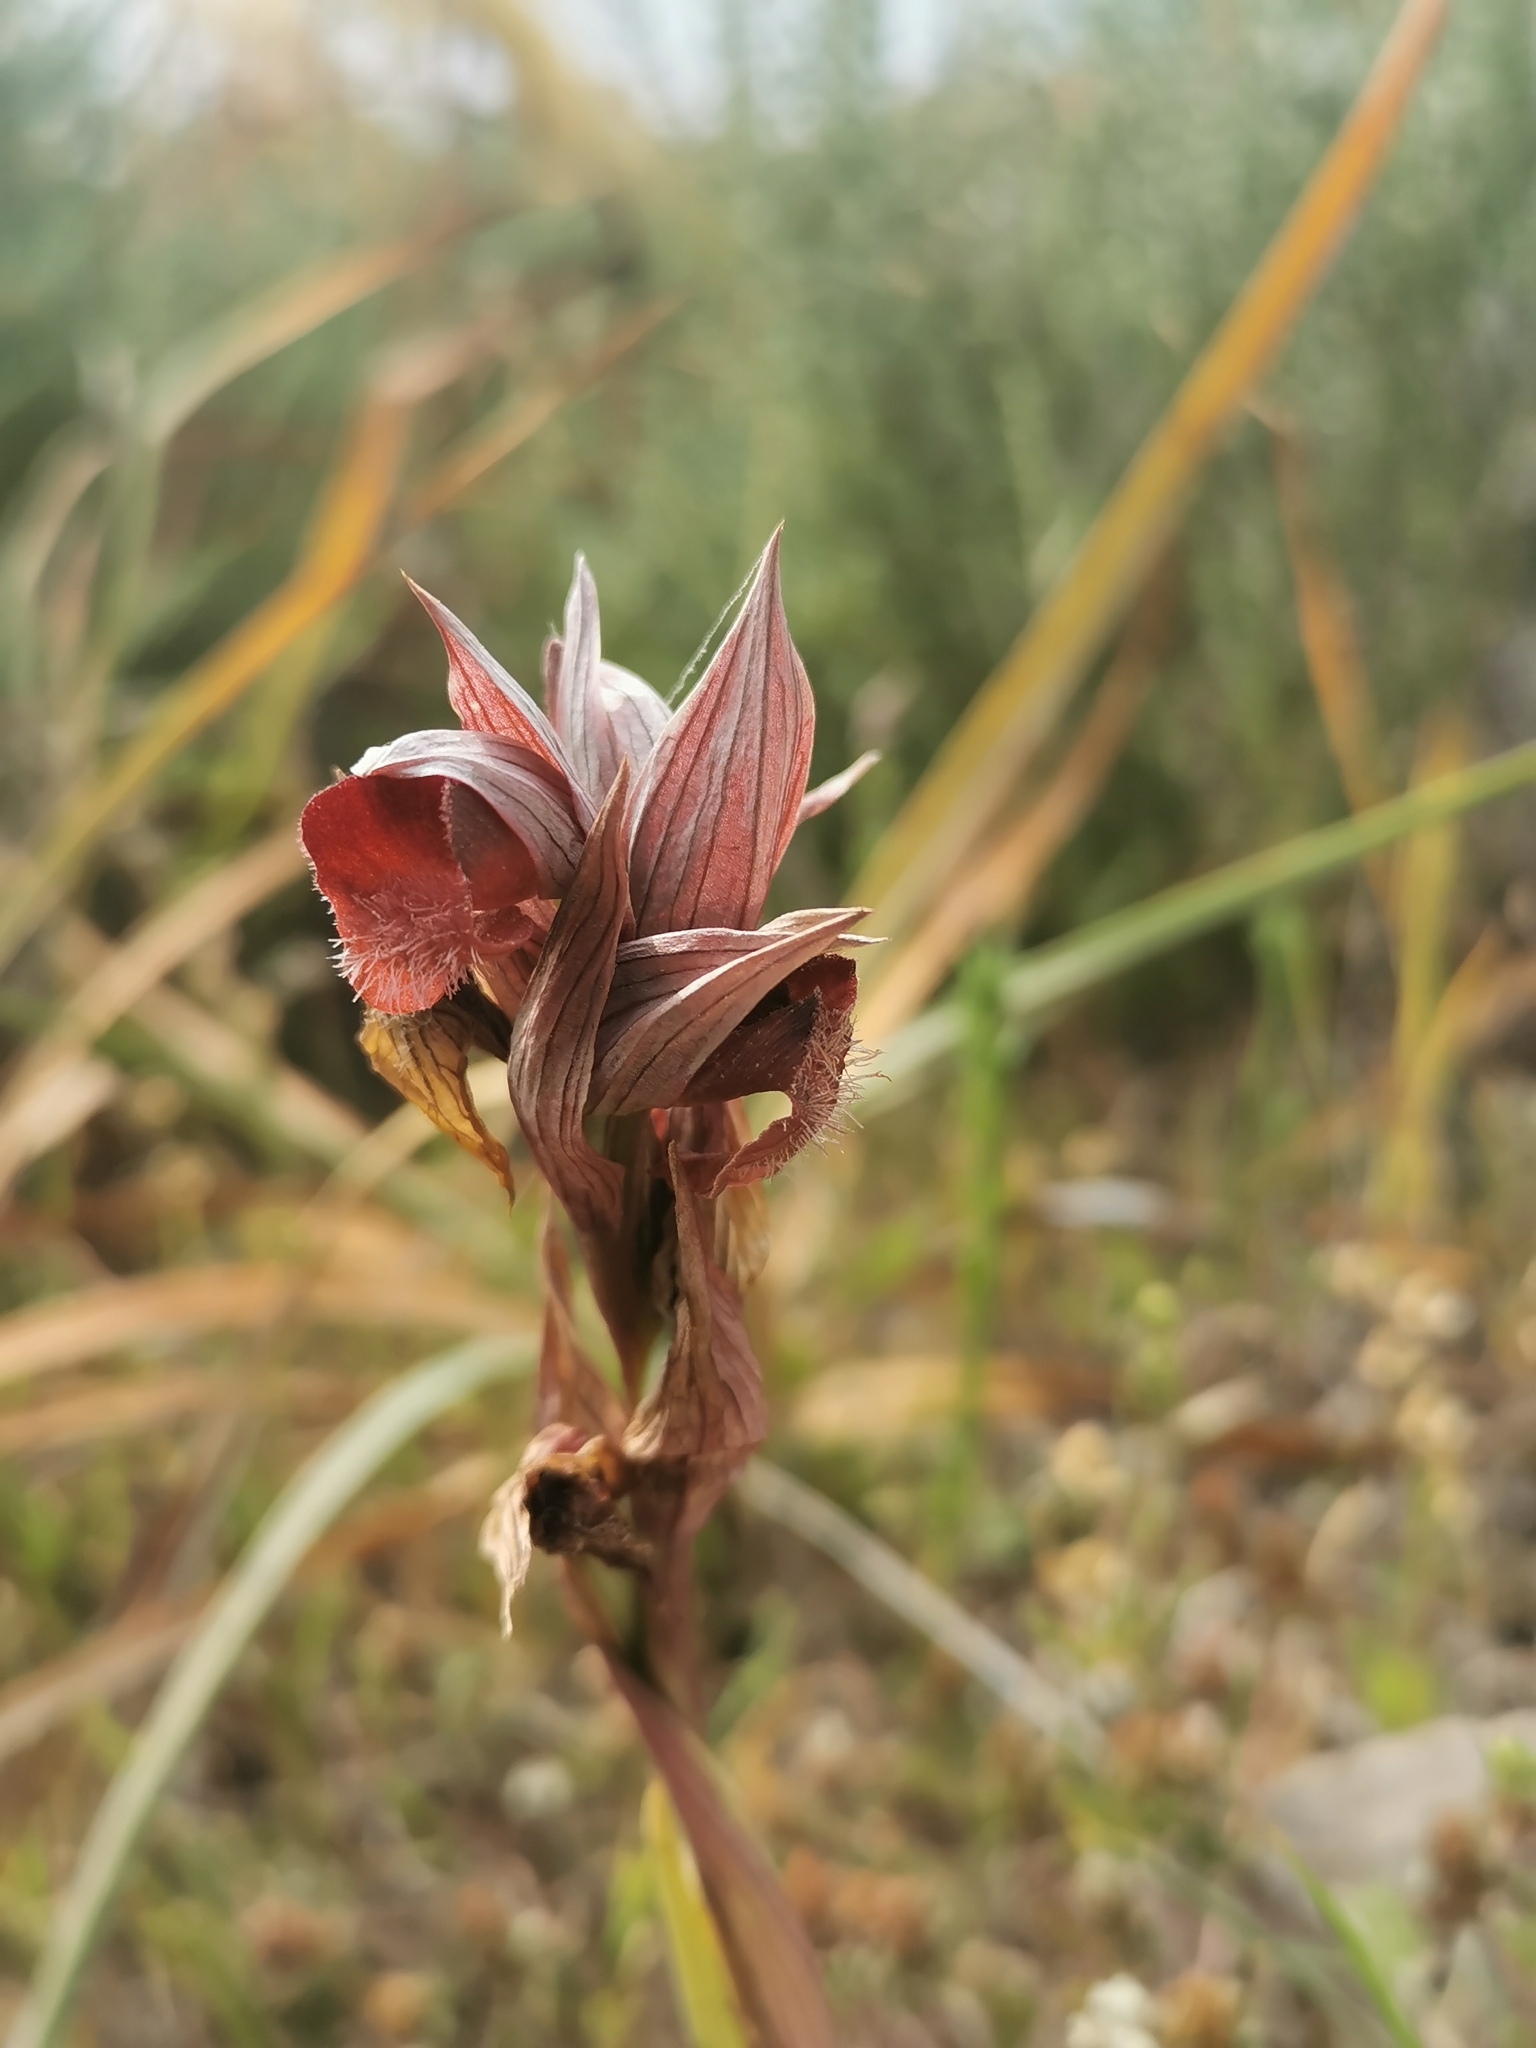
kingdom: Plantae
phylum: Tracheophyta
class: Liliopsida
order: Asparagales
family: Orchidaceae
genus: Serapias
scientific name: Serapias orientalis
